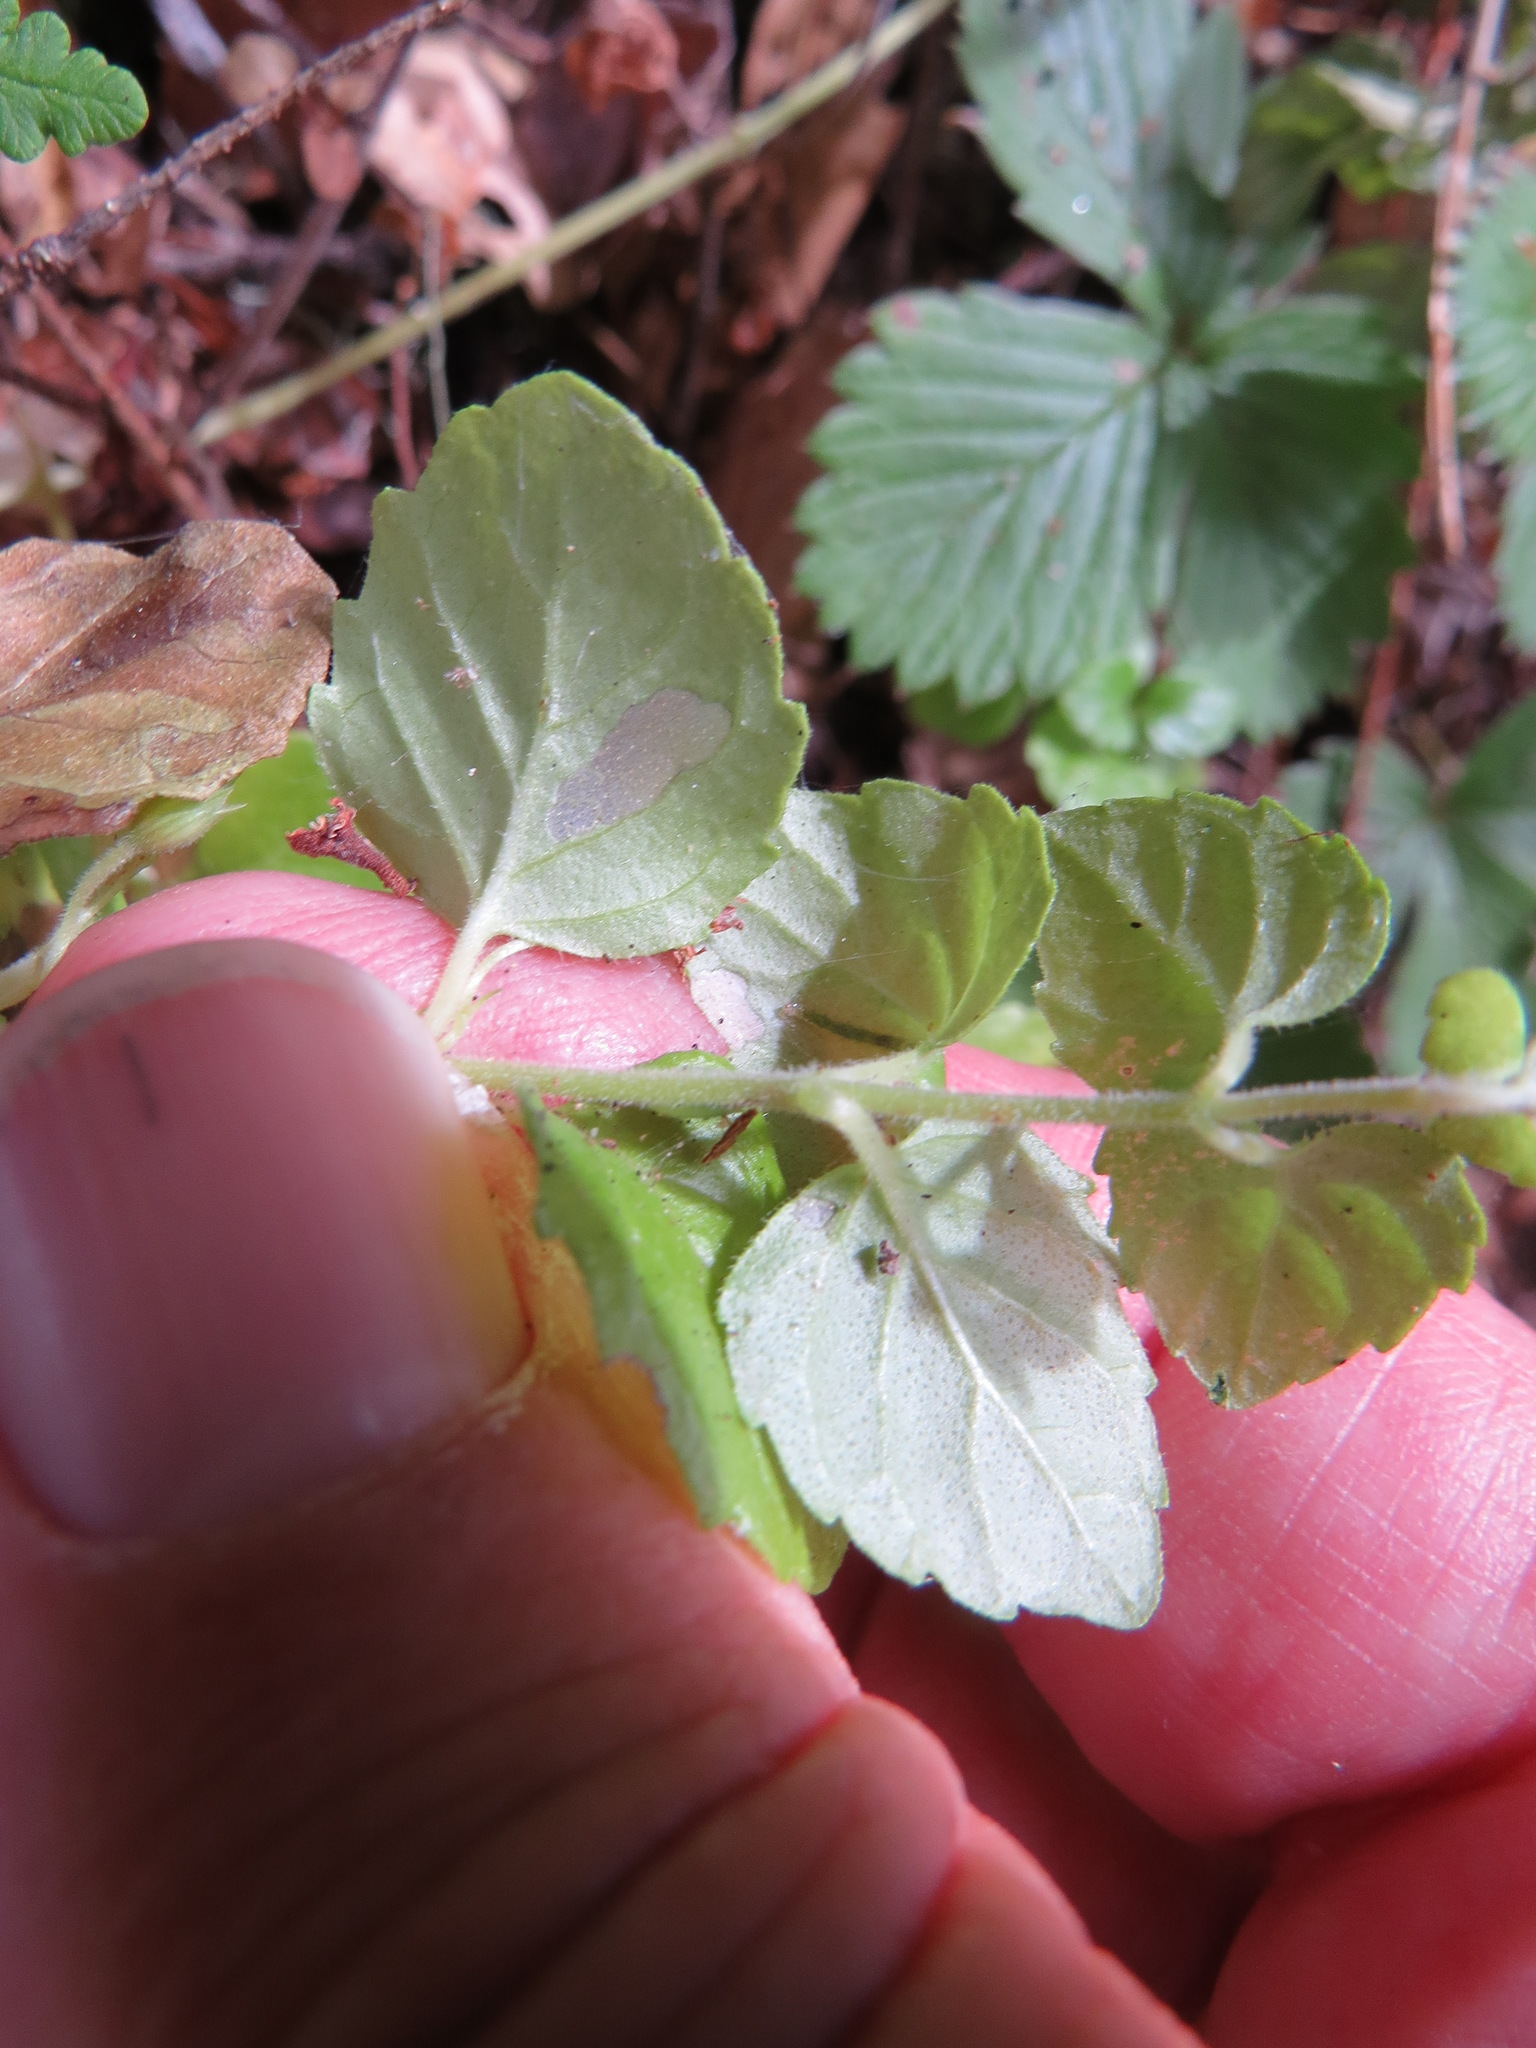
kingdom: Plantae
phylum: Tracheophyta
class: Magnoliopsida
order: Lamiales
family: Lamiaceae
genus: Micromeria
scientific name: Micromeria douglasii
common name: Yerba buena
